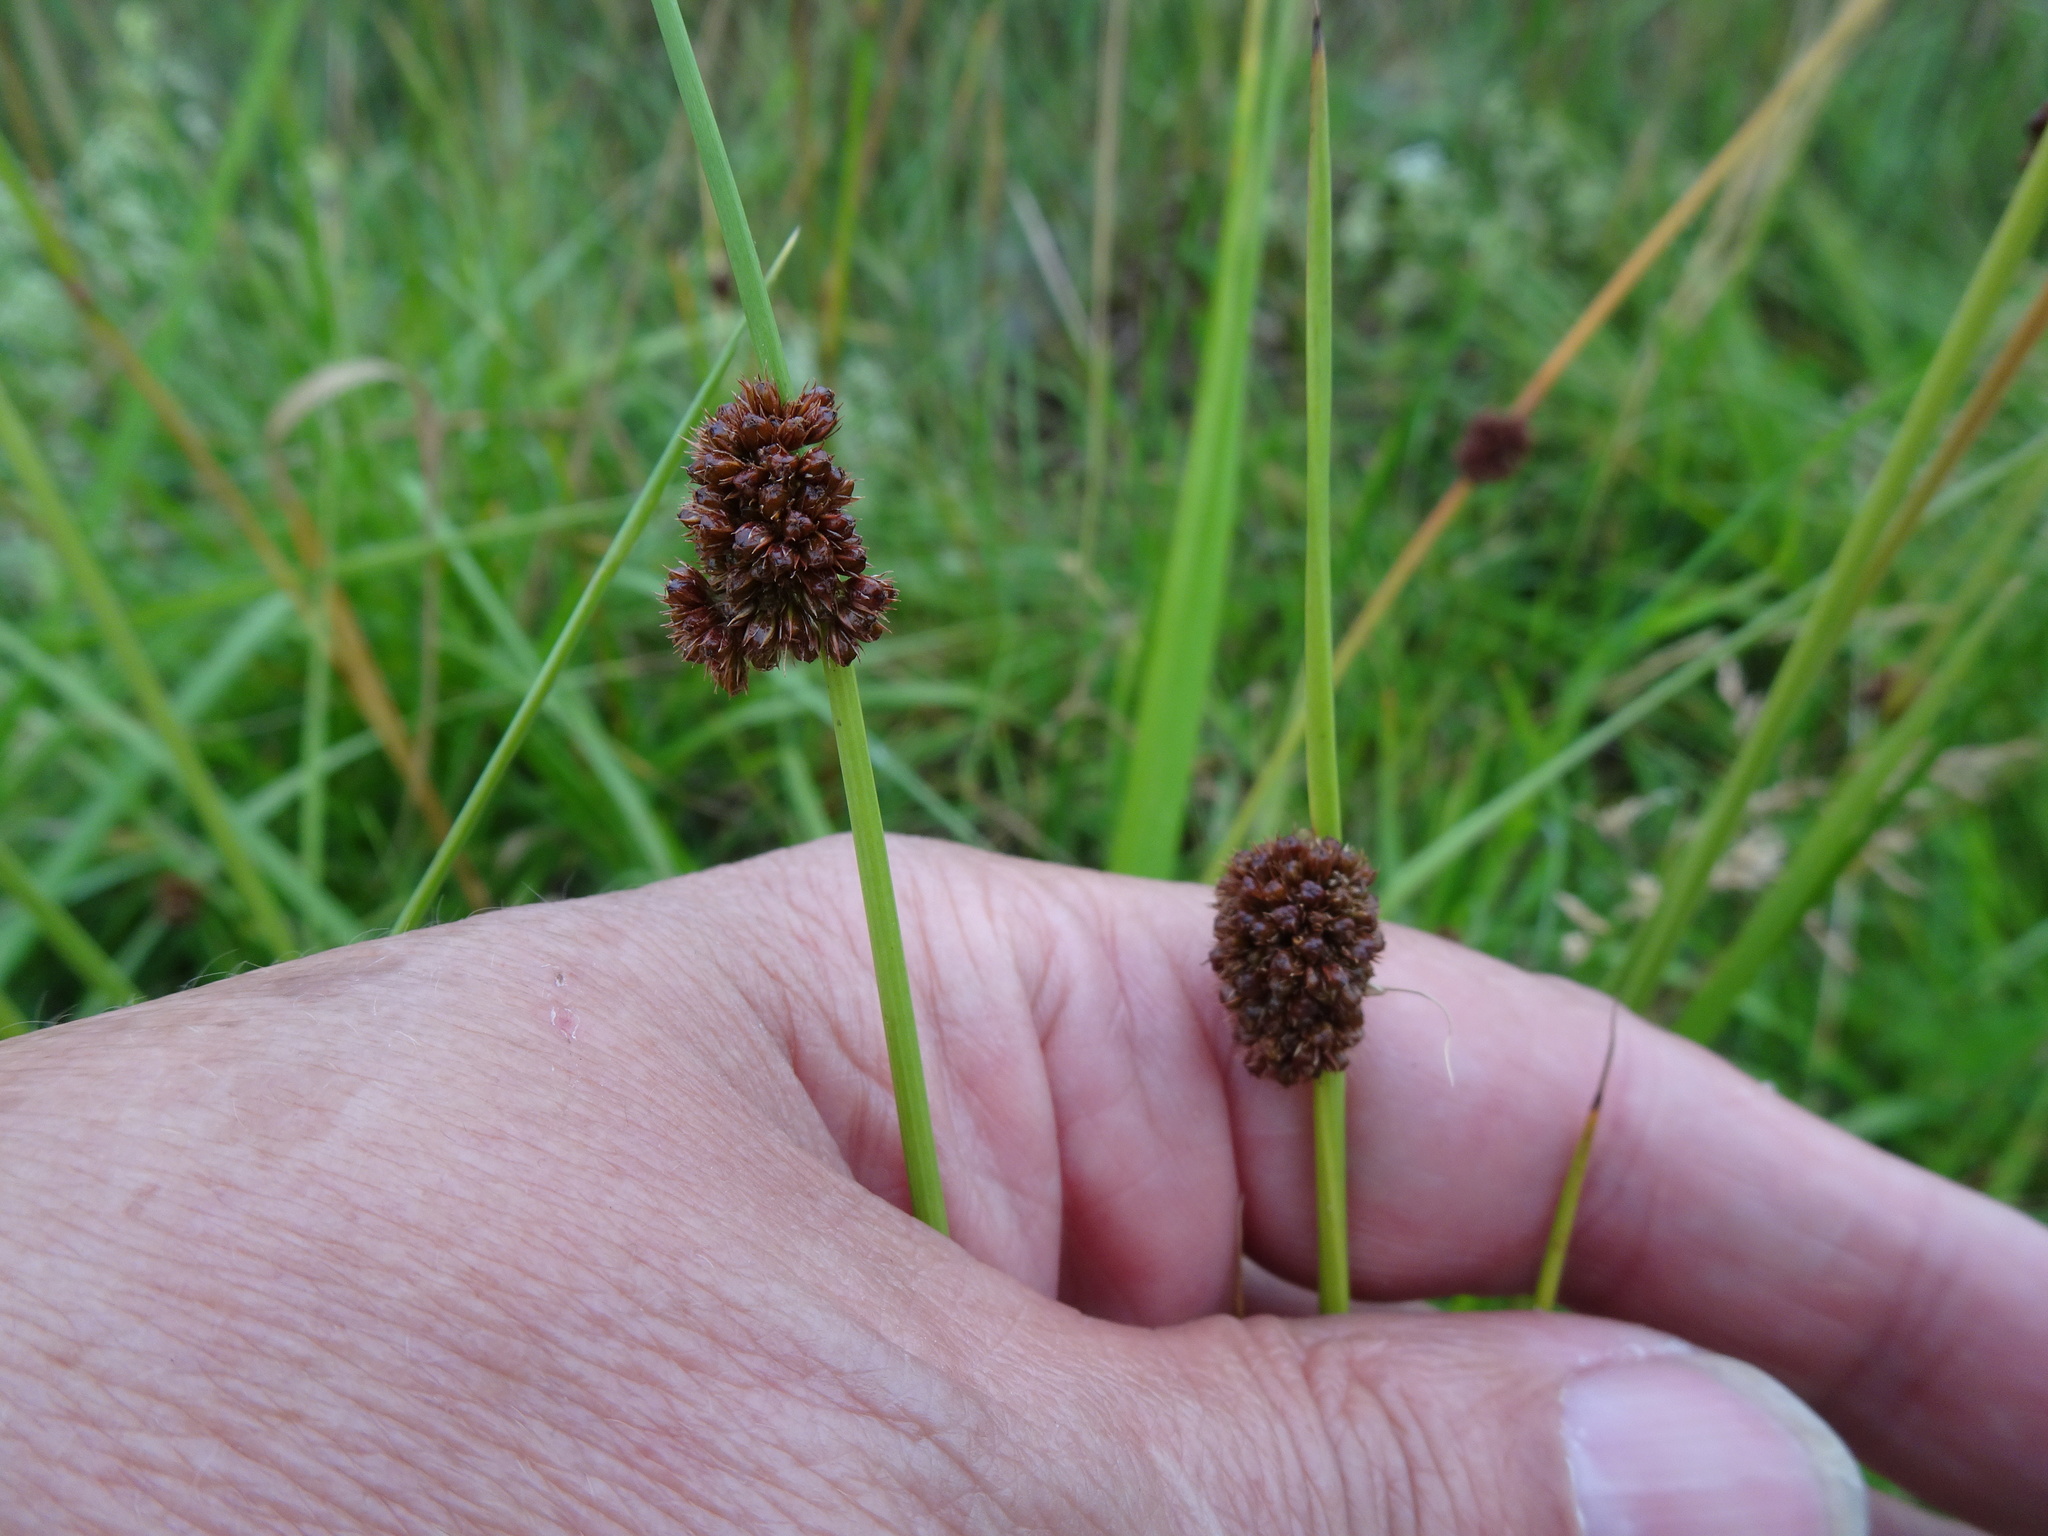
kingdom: Plantae
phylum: Tracheophyta
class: Liliopsida
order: Poales
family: Juncaceae
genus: Juncus
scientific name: Juncus effusus
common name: Soft rush
